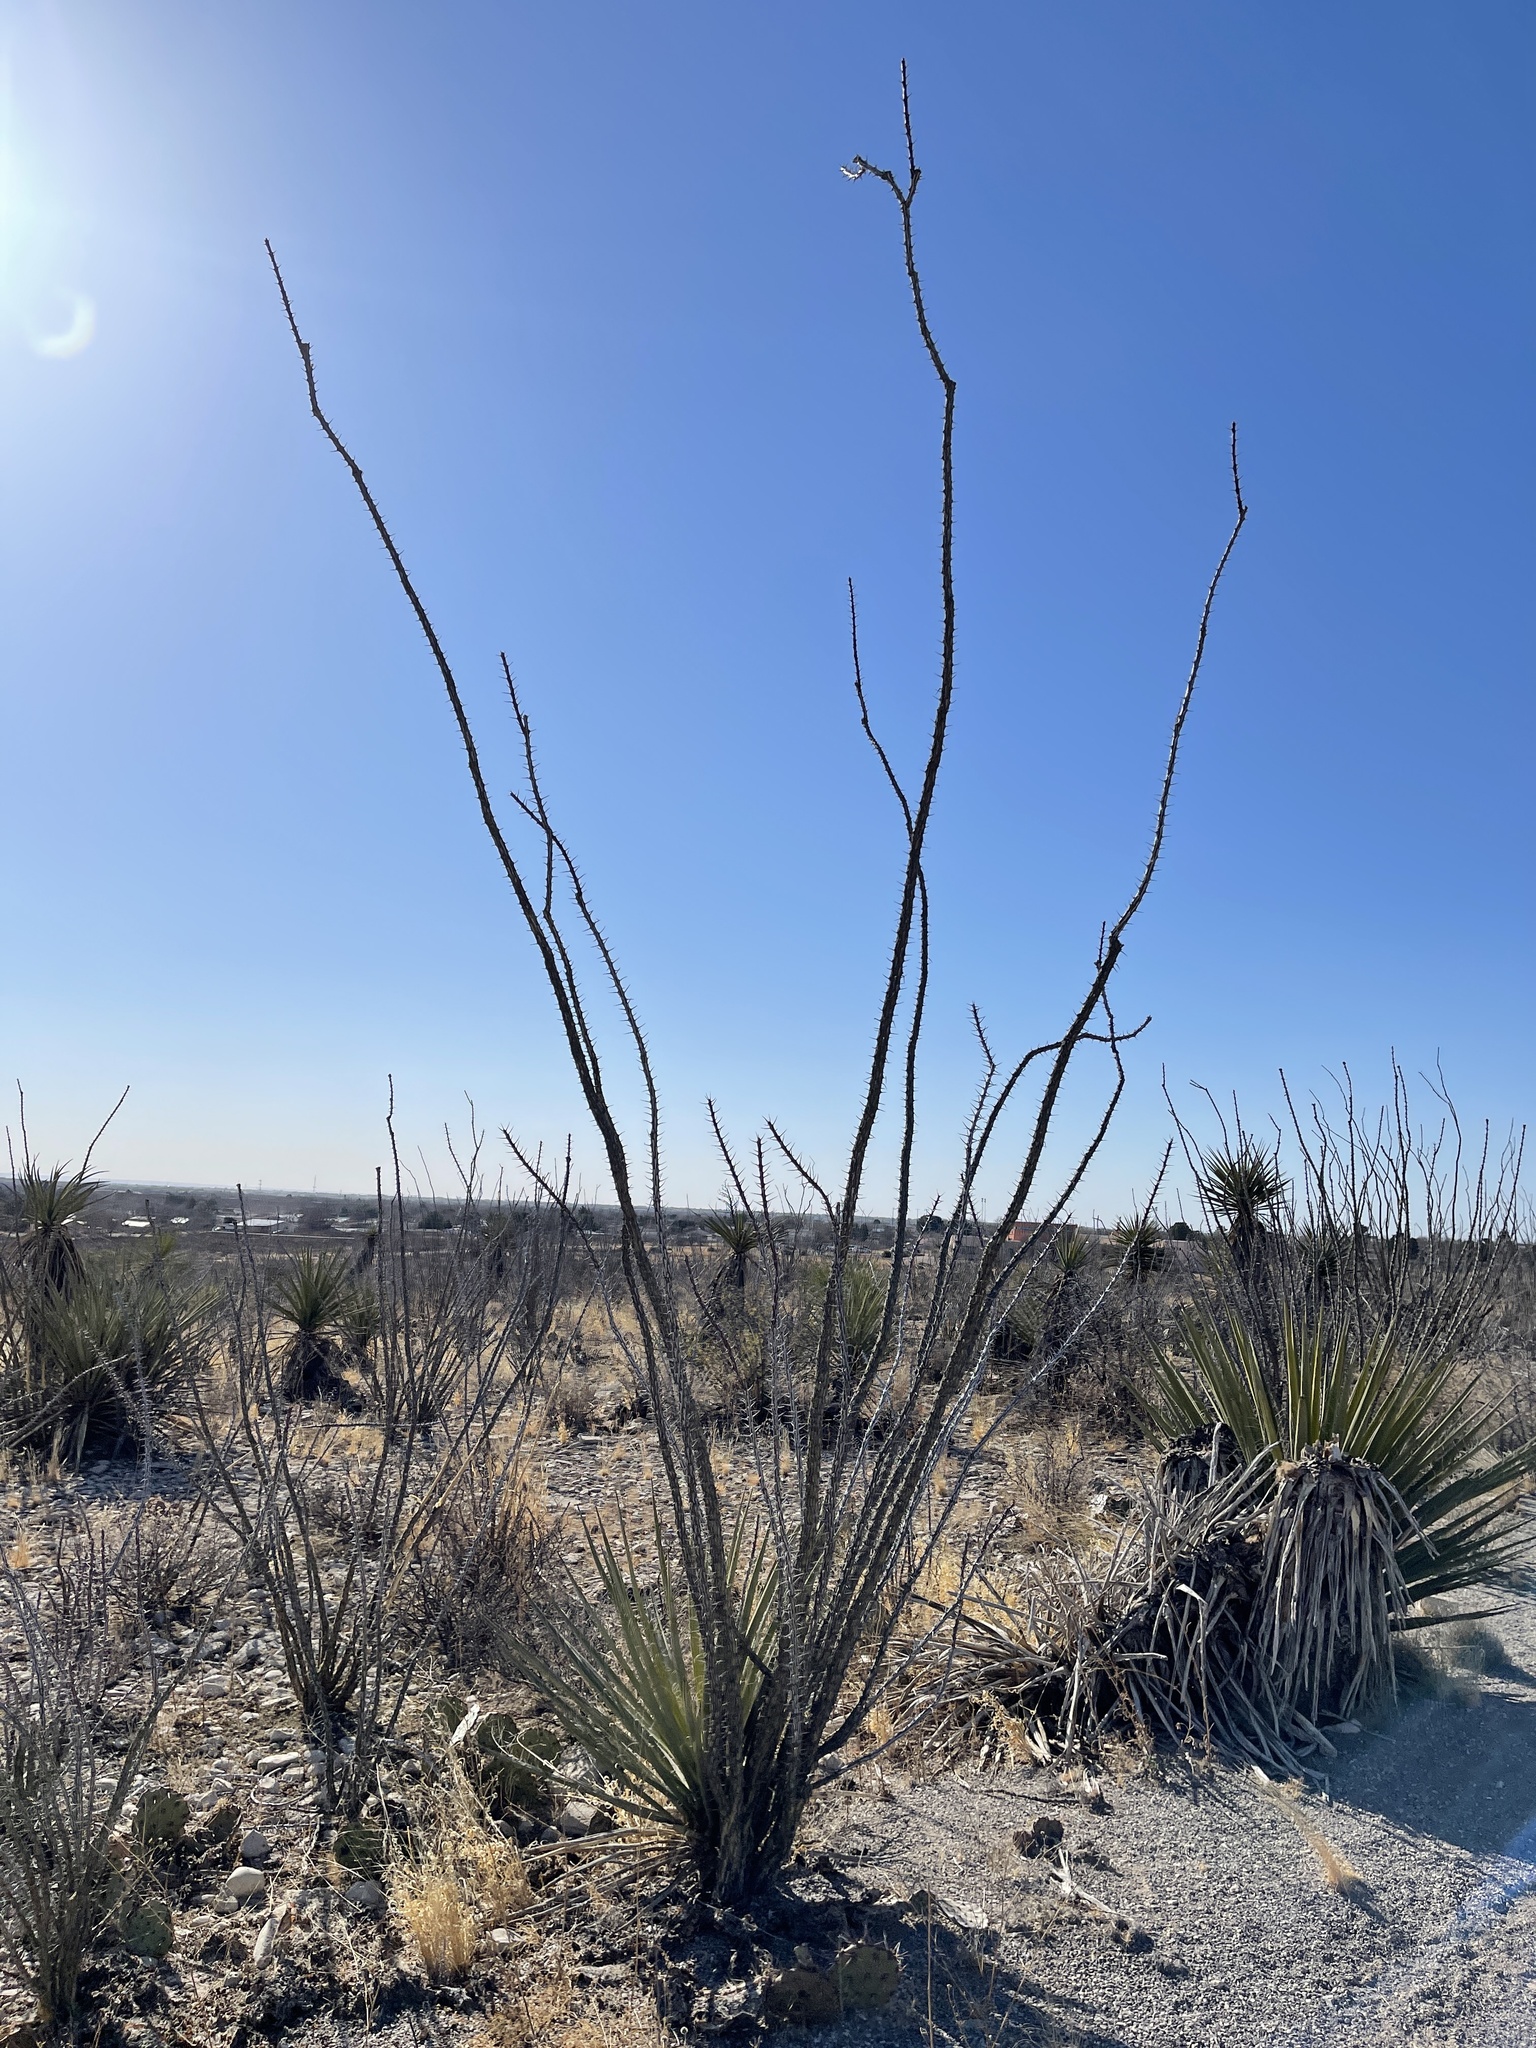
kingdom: Plantae
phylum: Tracheophyta
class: Magnoliopsida
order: Ericales
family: Fouquieriaceae
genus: Fouquieria
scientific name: Fouquieria splendens
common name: Vine-cactus
